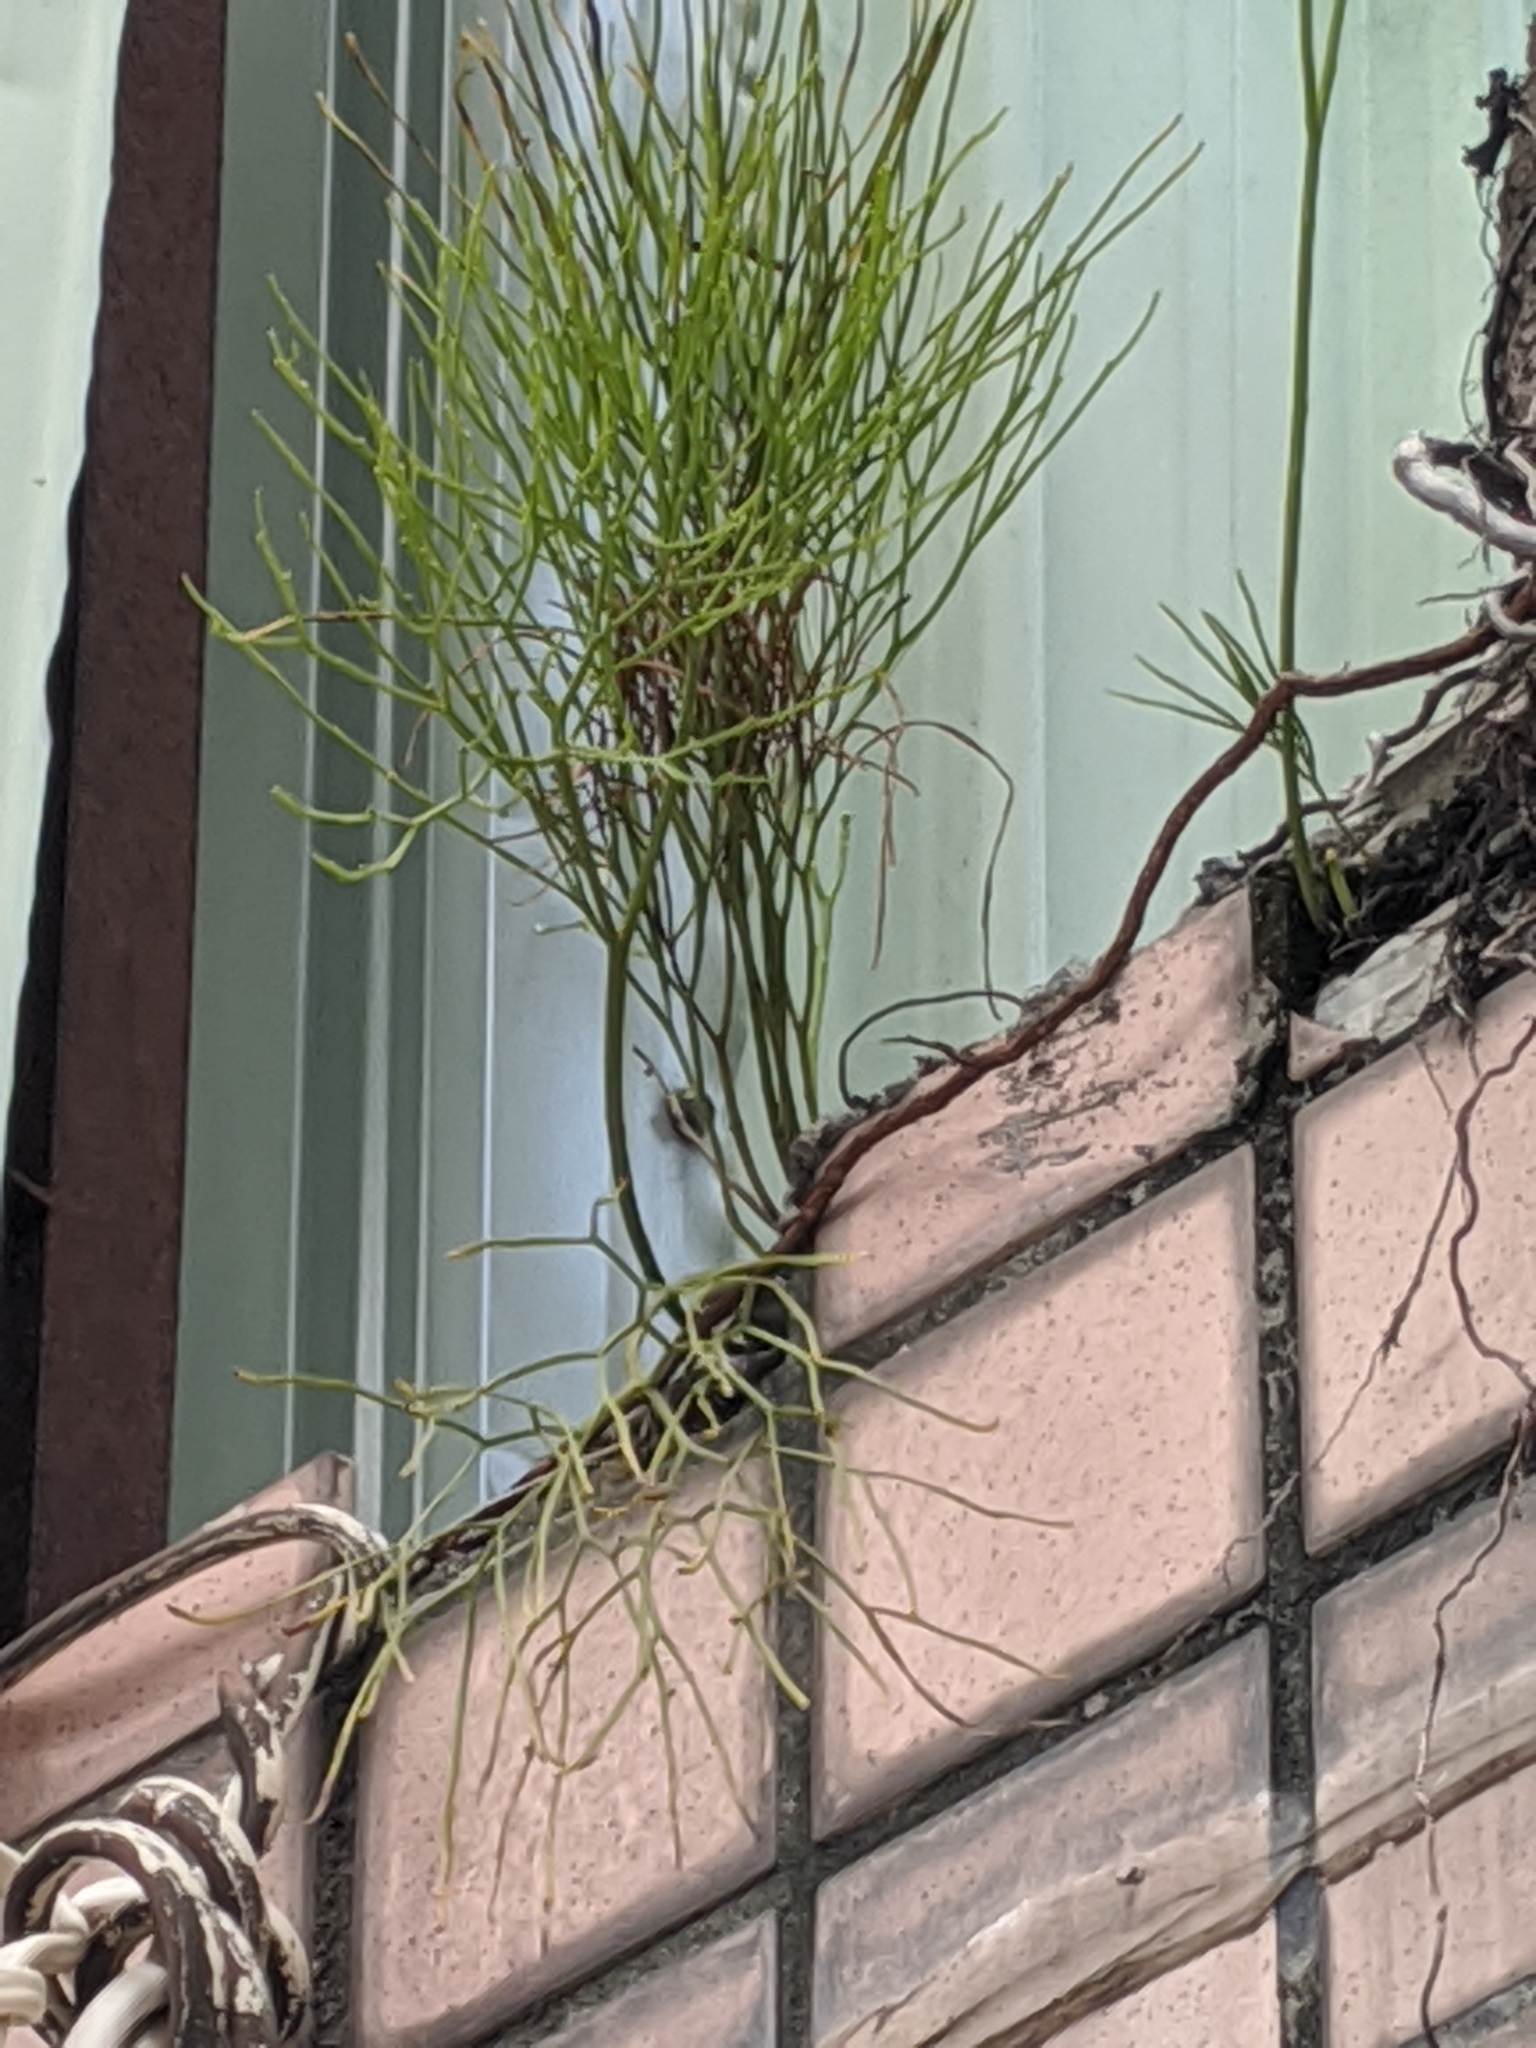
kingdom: Plantae
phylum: Tracheophyta
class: Polypodiopsida
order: Psilotales
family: Psilotaceae
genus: Psilotum
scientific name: Psilotum nudum
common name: Skeleton fork fern
